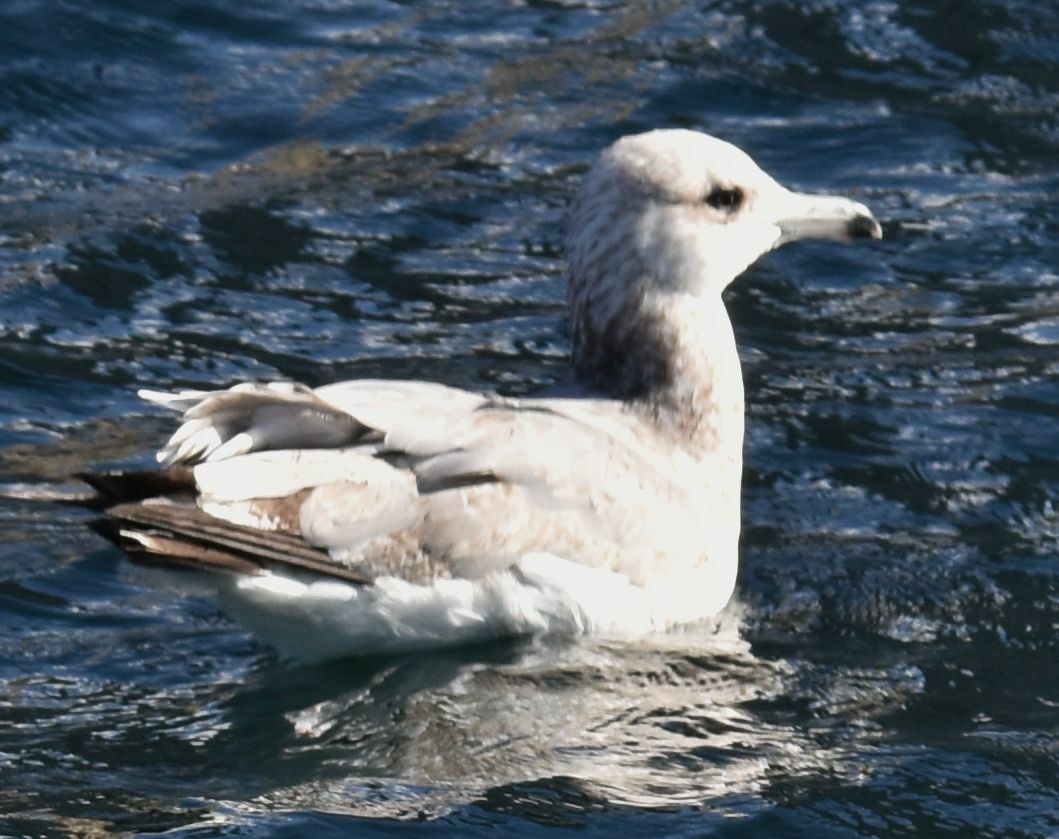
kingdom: Animalia
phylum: Chordata
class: Aves
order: Charadriiformes
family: Laridae
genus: Larus
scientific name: Larus californicus
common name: California gull
